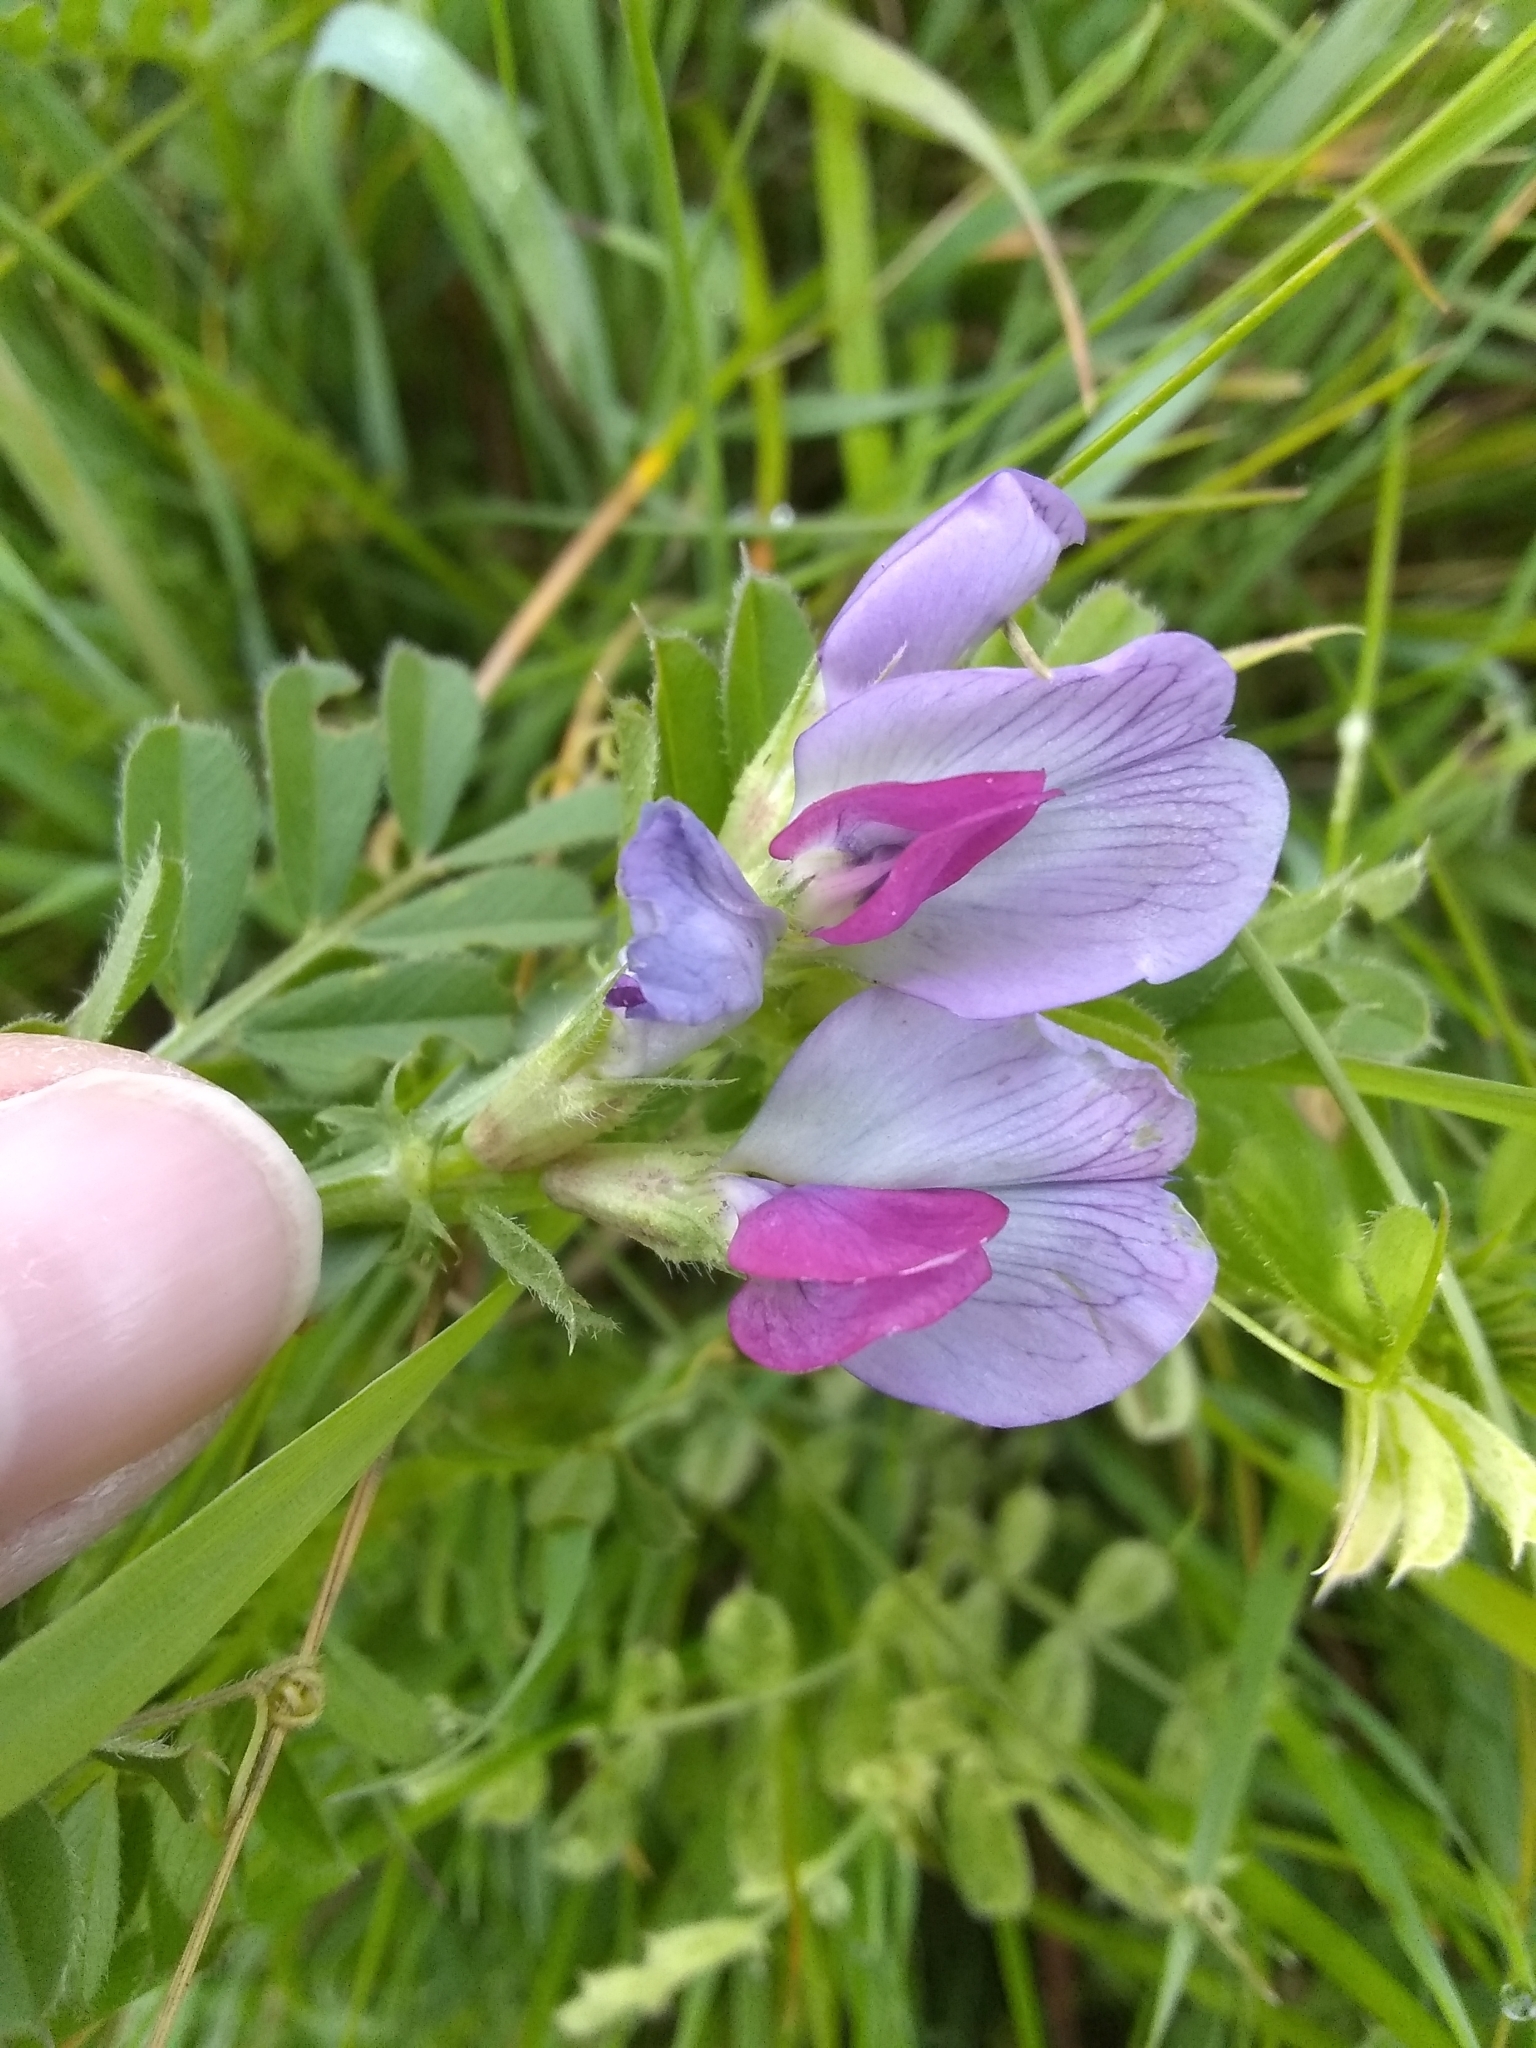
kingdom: Plantae
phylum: Tracheophyta
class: Magnoliopsida
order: Fabales
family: Fabaceae
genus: Vicia
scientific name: Vicia sativa
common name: Garden vetch
